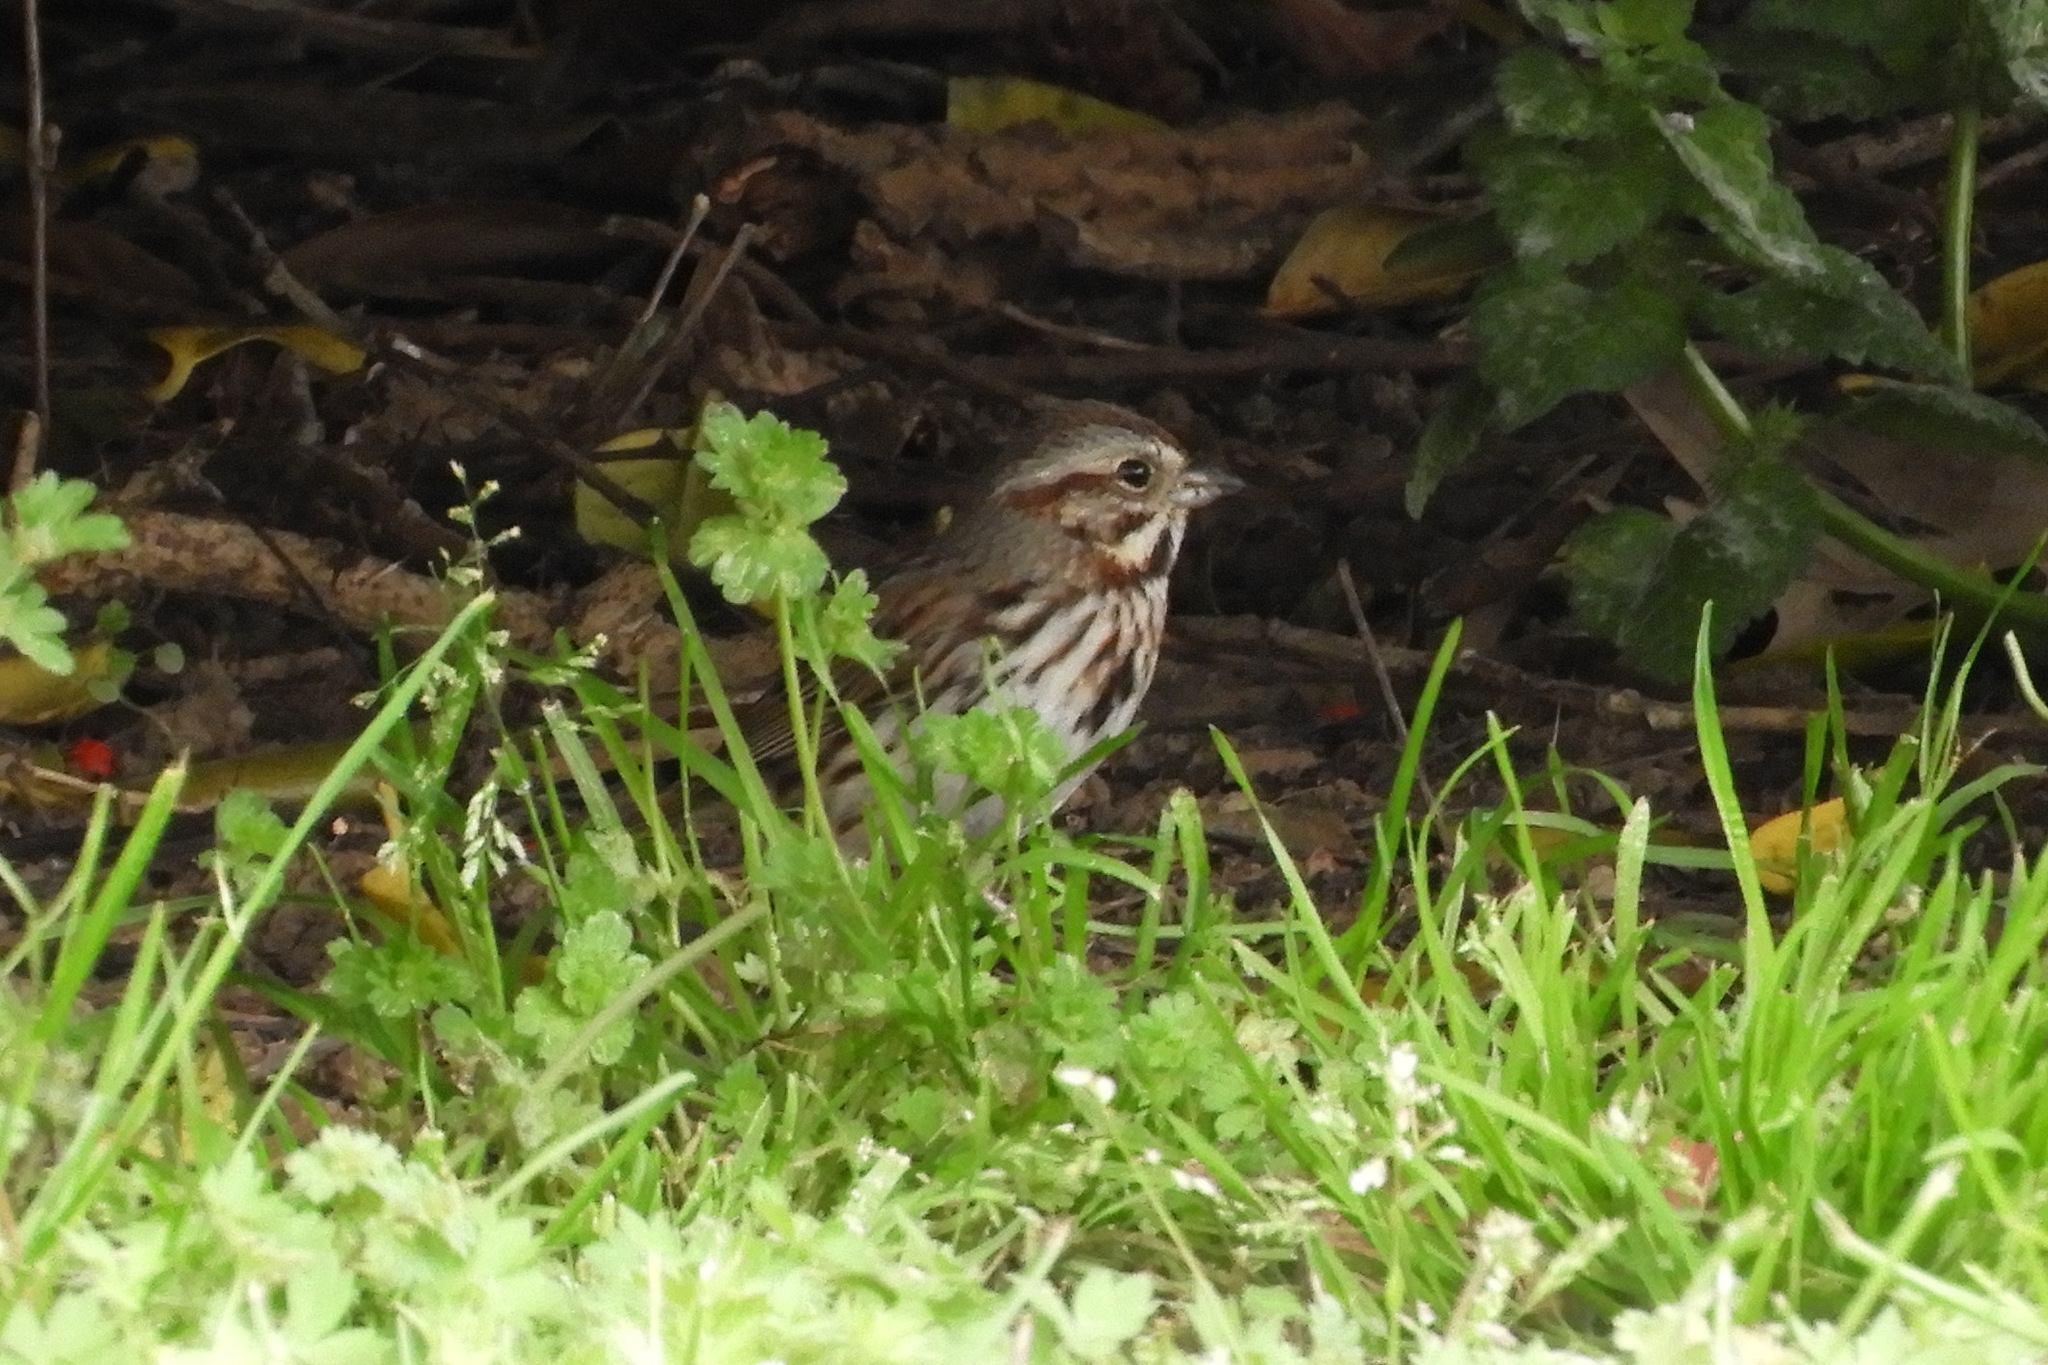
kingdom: Animalia
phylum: Chordata
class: Aves
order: Passeriformes
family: Passerellidae
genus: Melospiza
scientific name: Melospiza melodia
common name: Song sparrow
